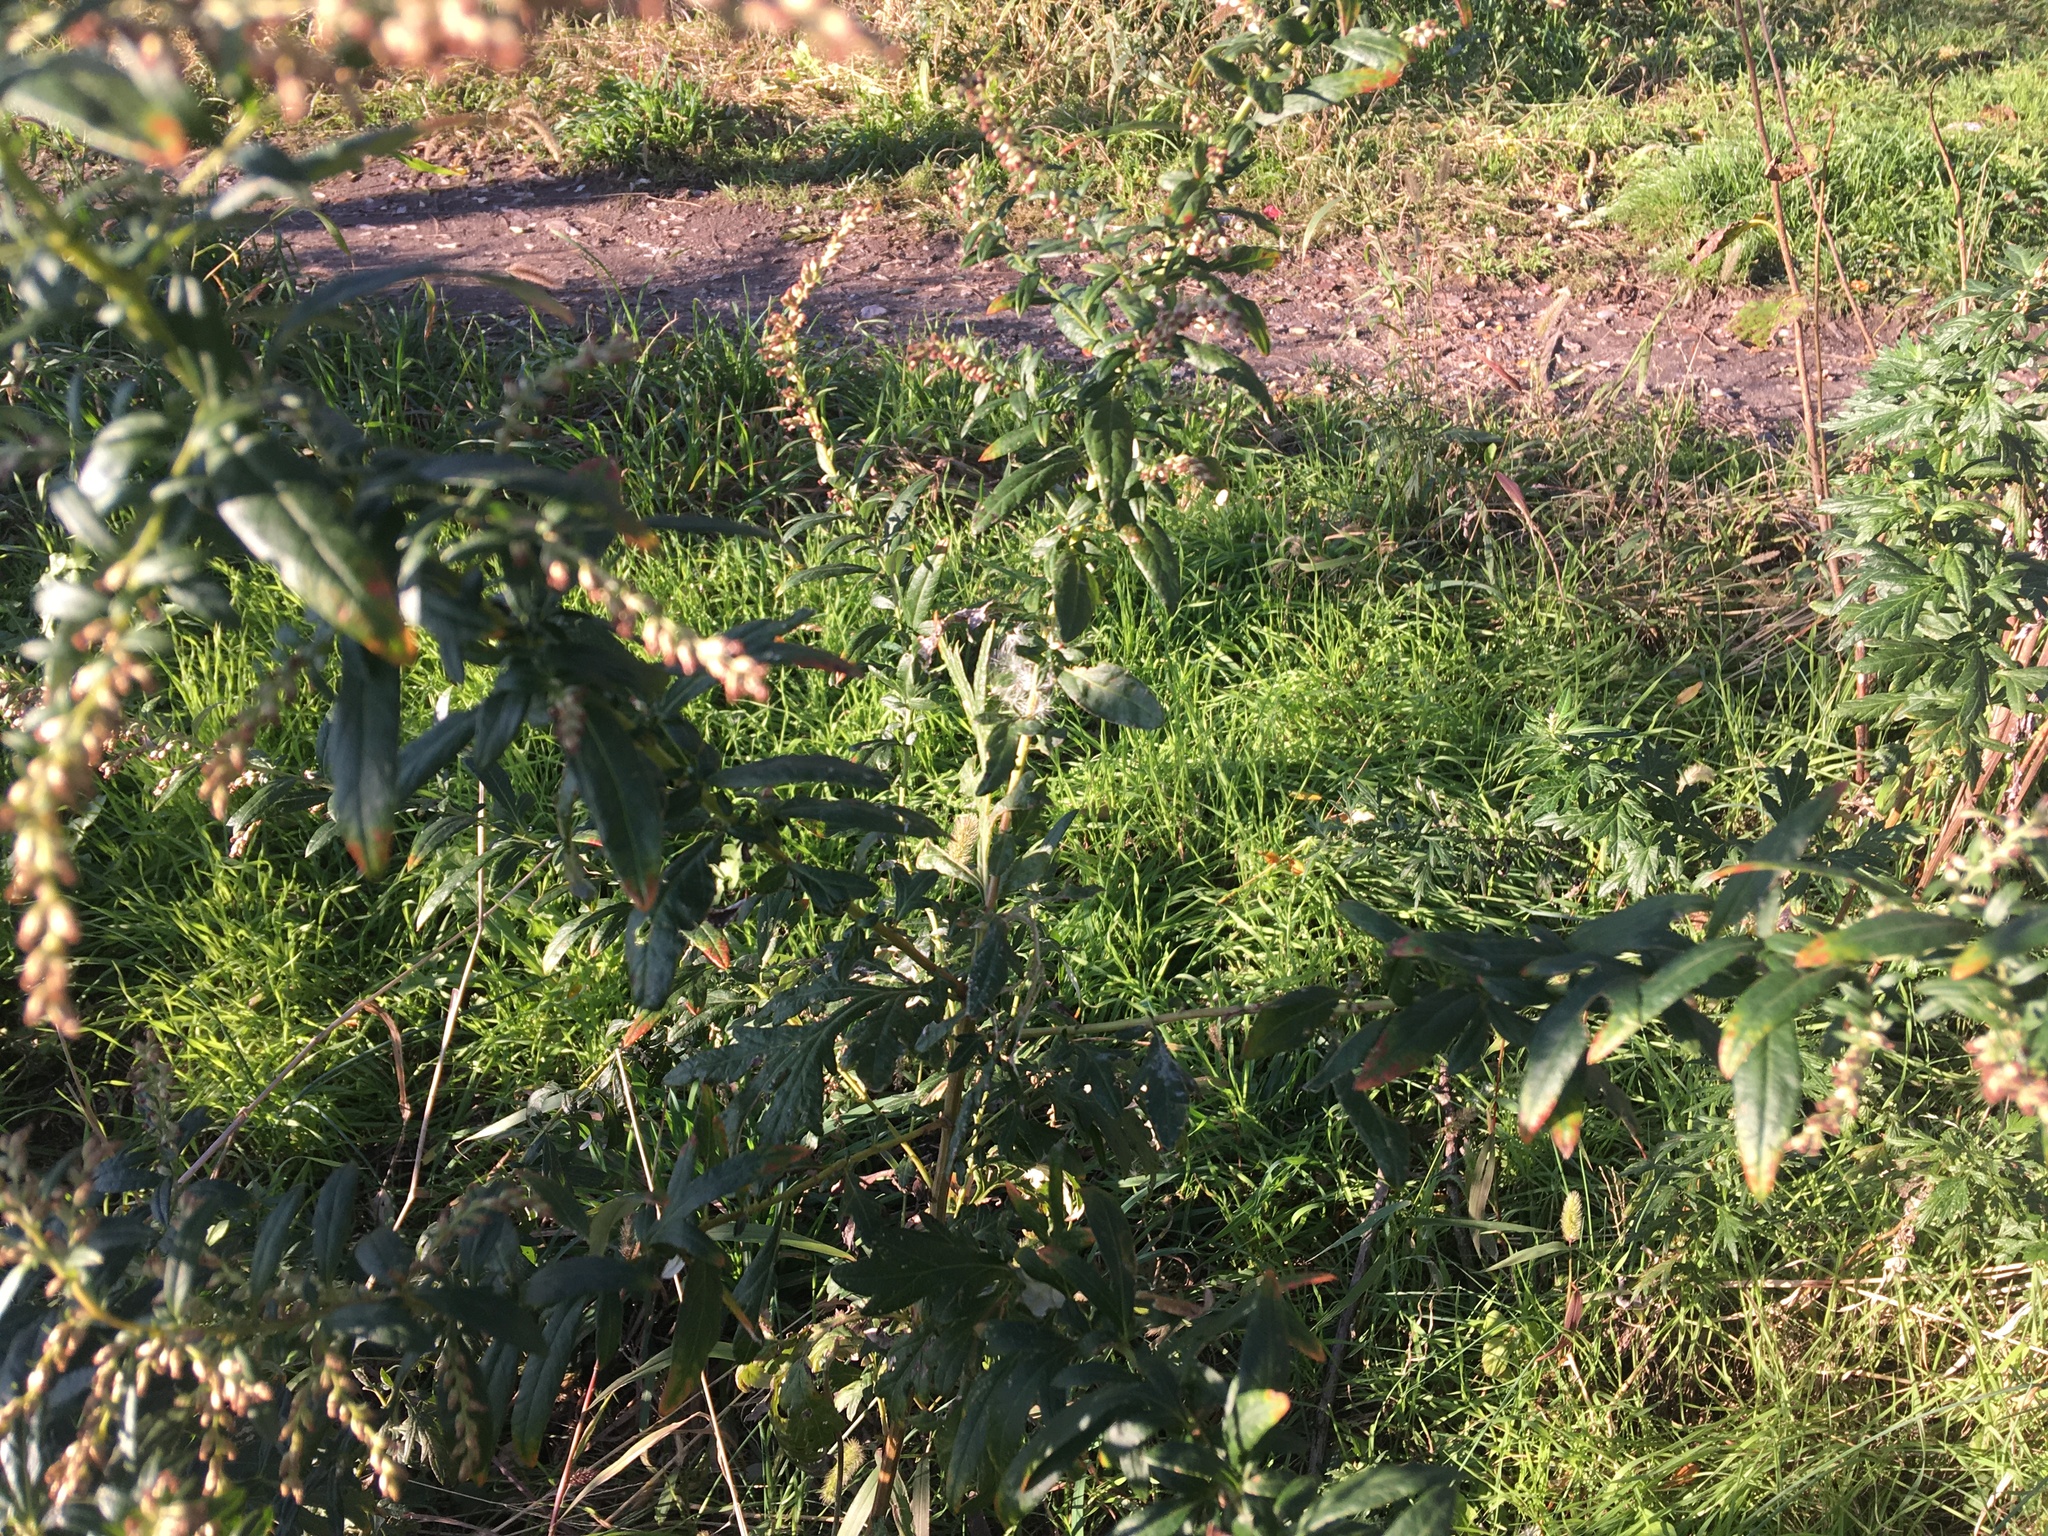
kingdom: Plantae
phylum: Tracheophyta
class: Magnoliopsida
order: Asterales
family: Asteraceae
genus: Artemisia
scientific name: Artemisia vulgaris
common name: Mugwort
